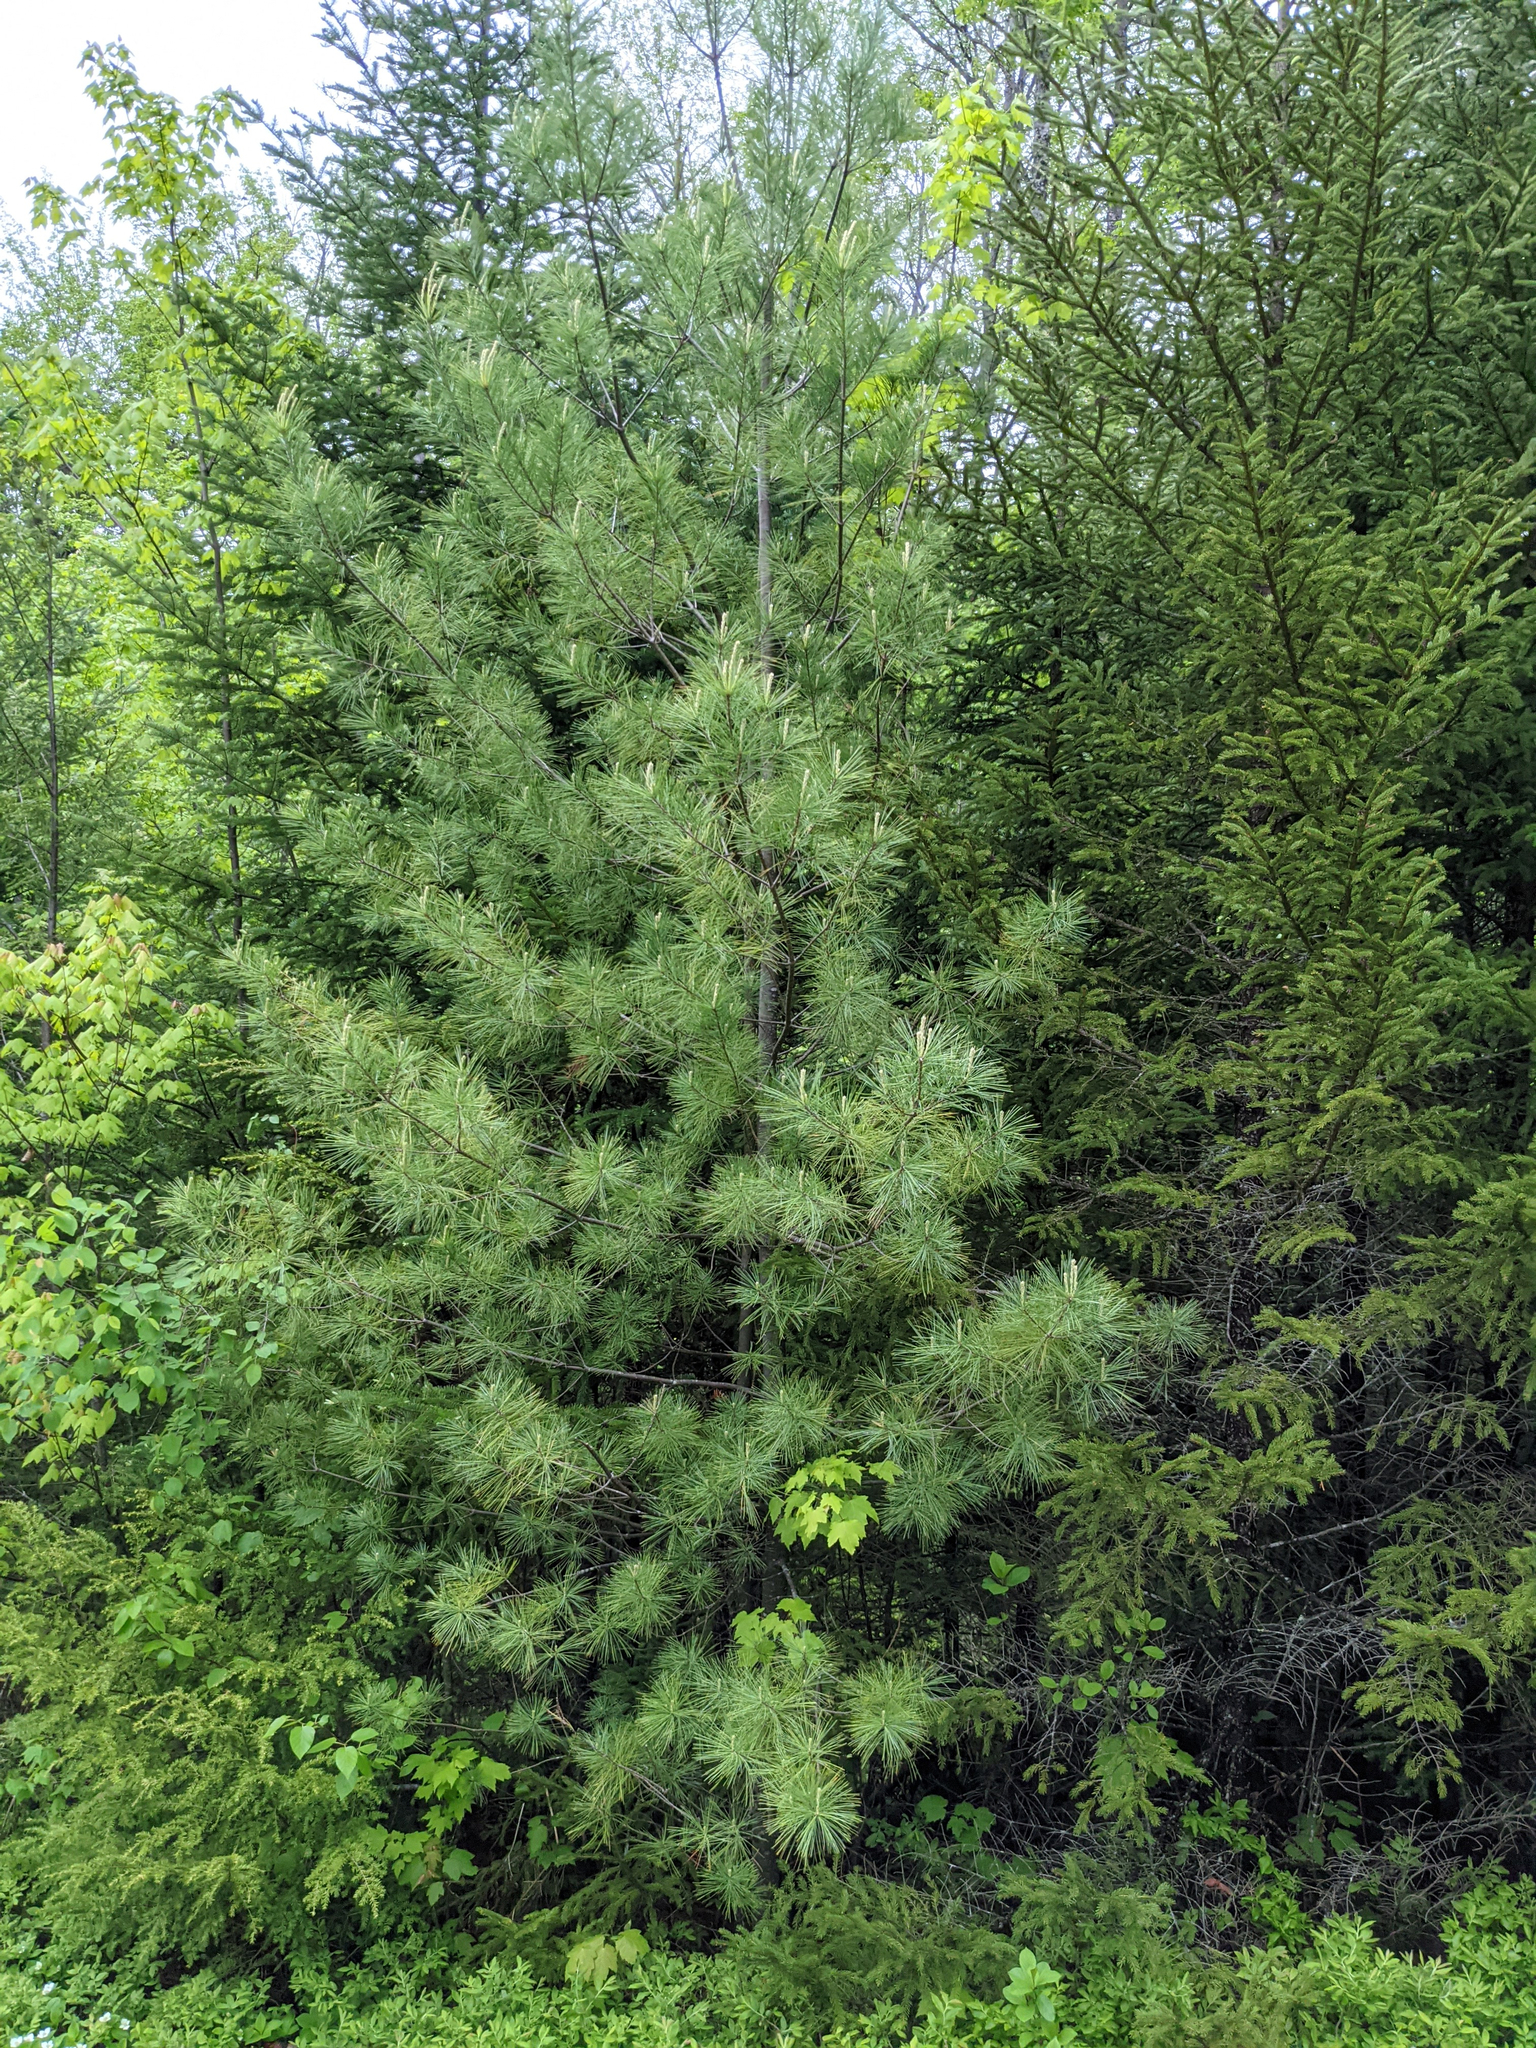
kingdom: Plantae
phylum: Tracheophyta
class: Pinopsida
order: Pinales
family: Pinaceae
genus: Pinus
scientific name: Pinus strobus
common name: Weymouth pine
